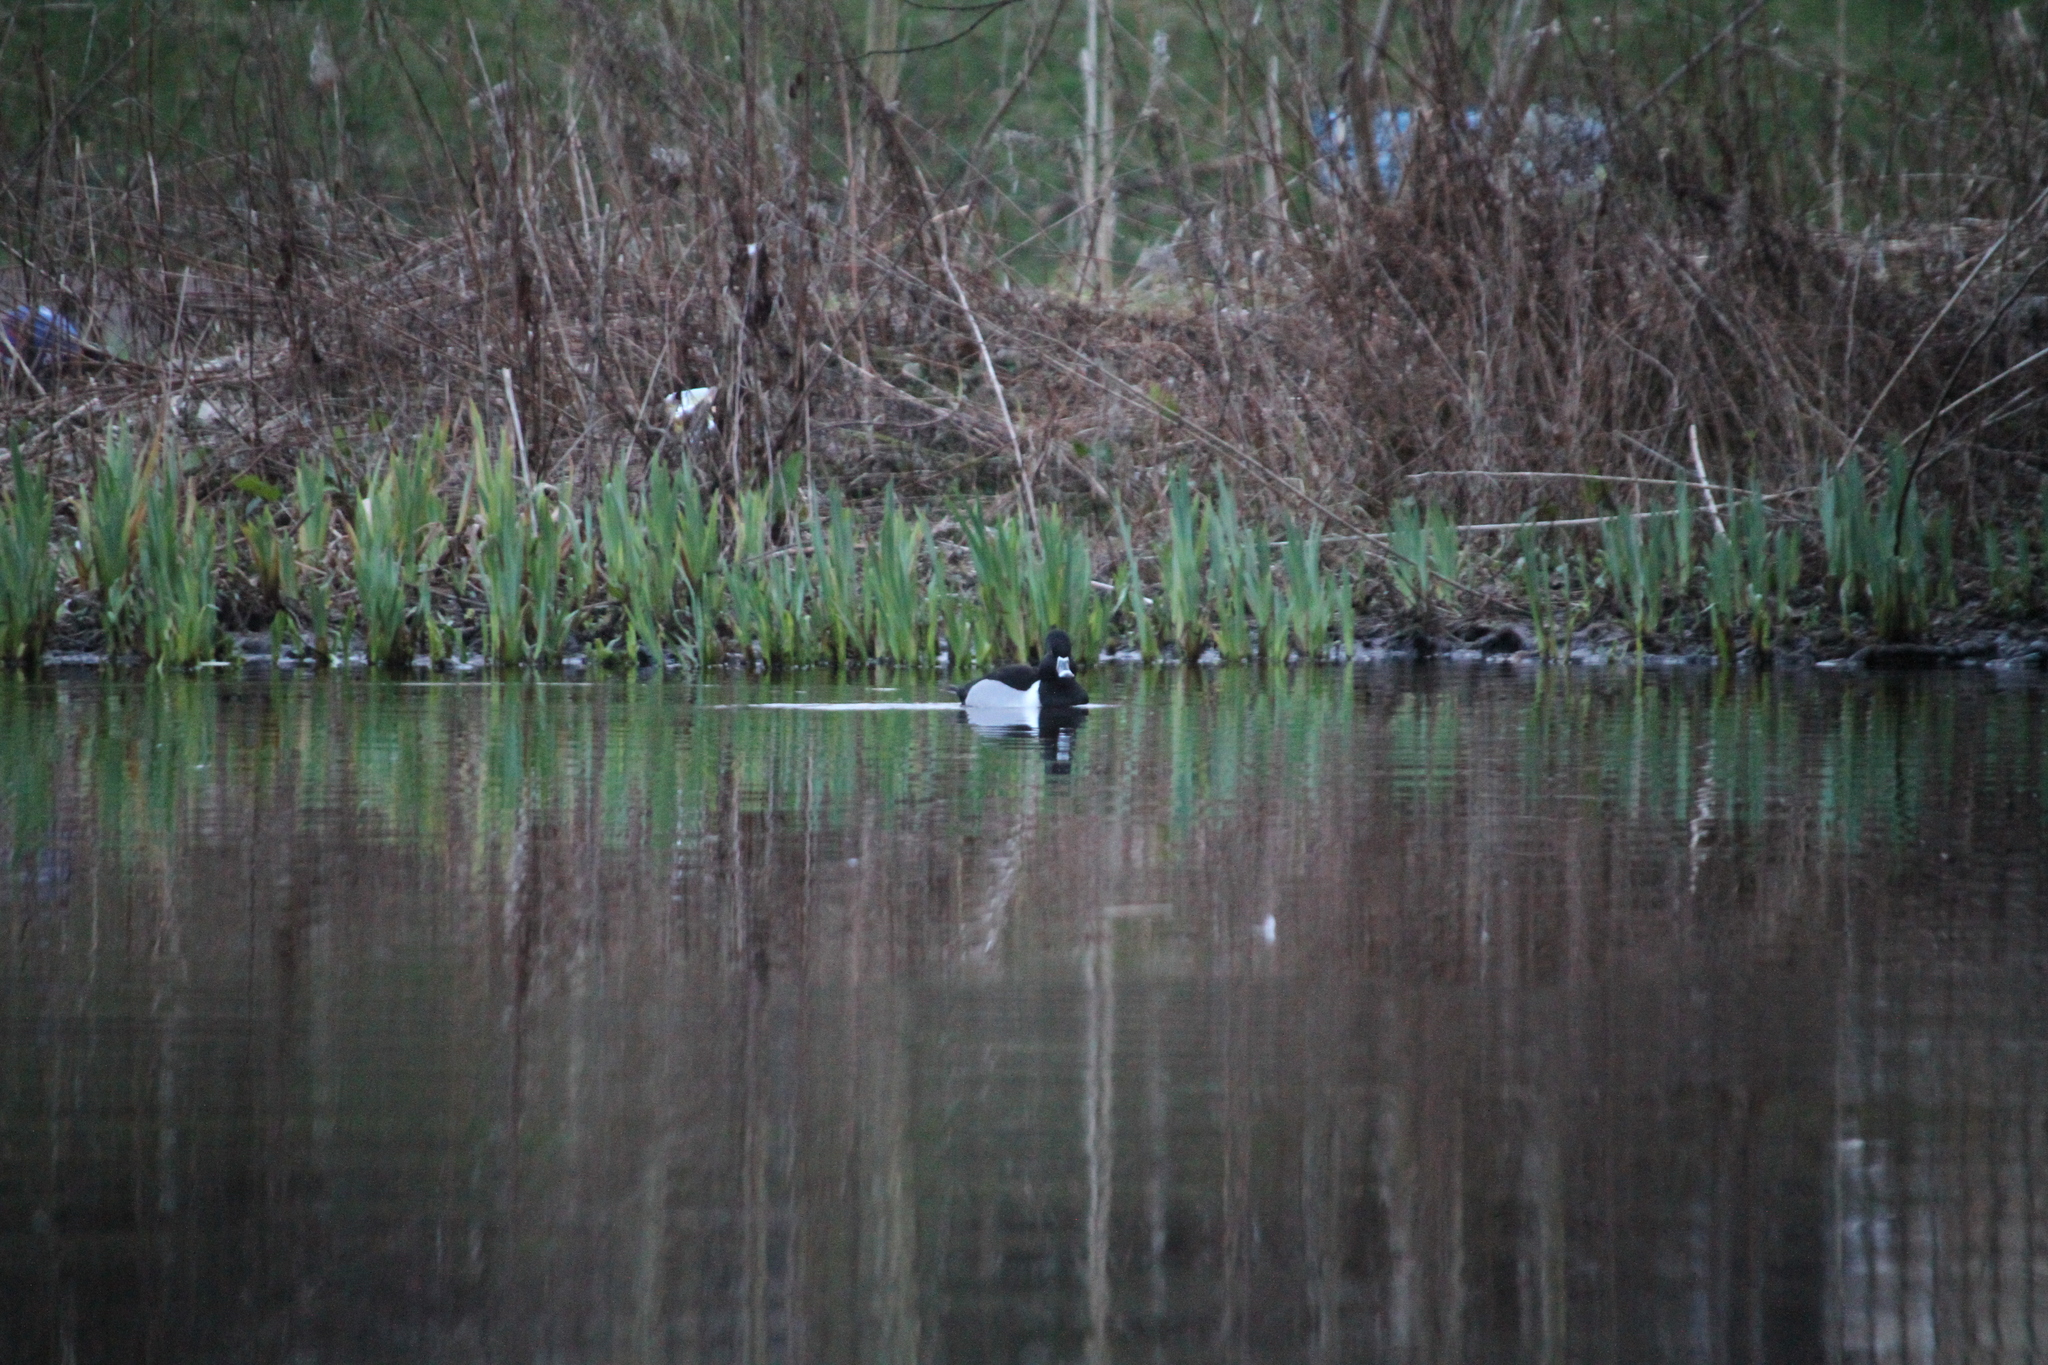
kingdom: Animalia
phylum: Chordata
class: Aves
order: Anseriformes
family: Anatidae
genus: Aythya
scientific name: Aythya collaris
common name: Ring-necked duck
